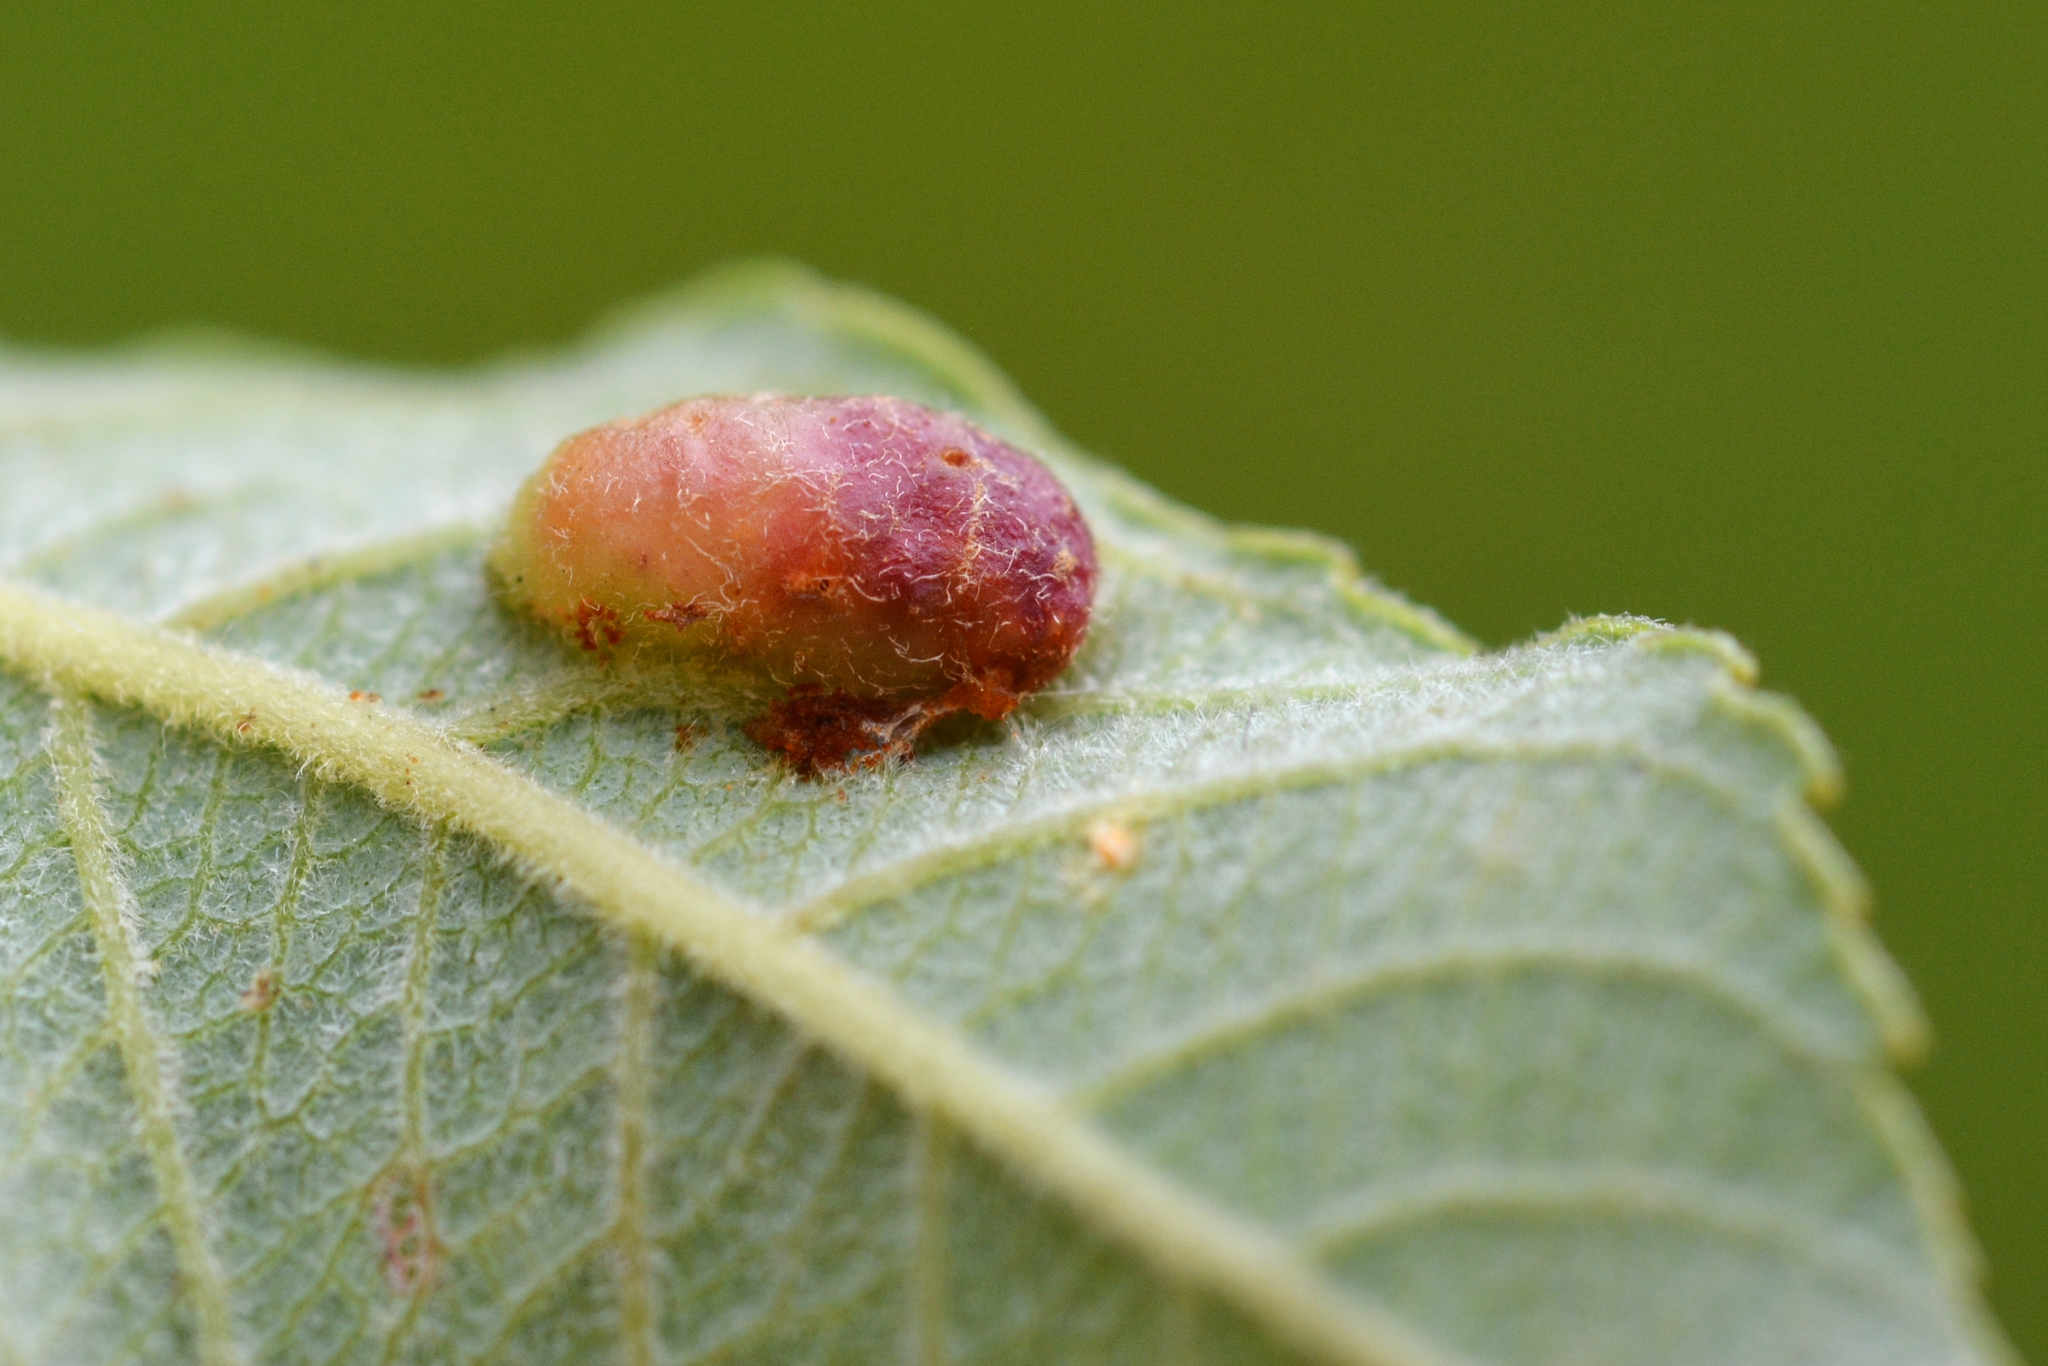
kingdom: Animalia
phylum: Arthropoda
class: Insecta
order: Hymenoptera
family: Tenthredinidae
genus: Pontania
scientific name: Pontania bridgmanii
